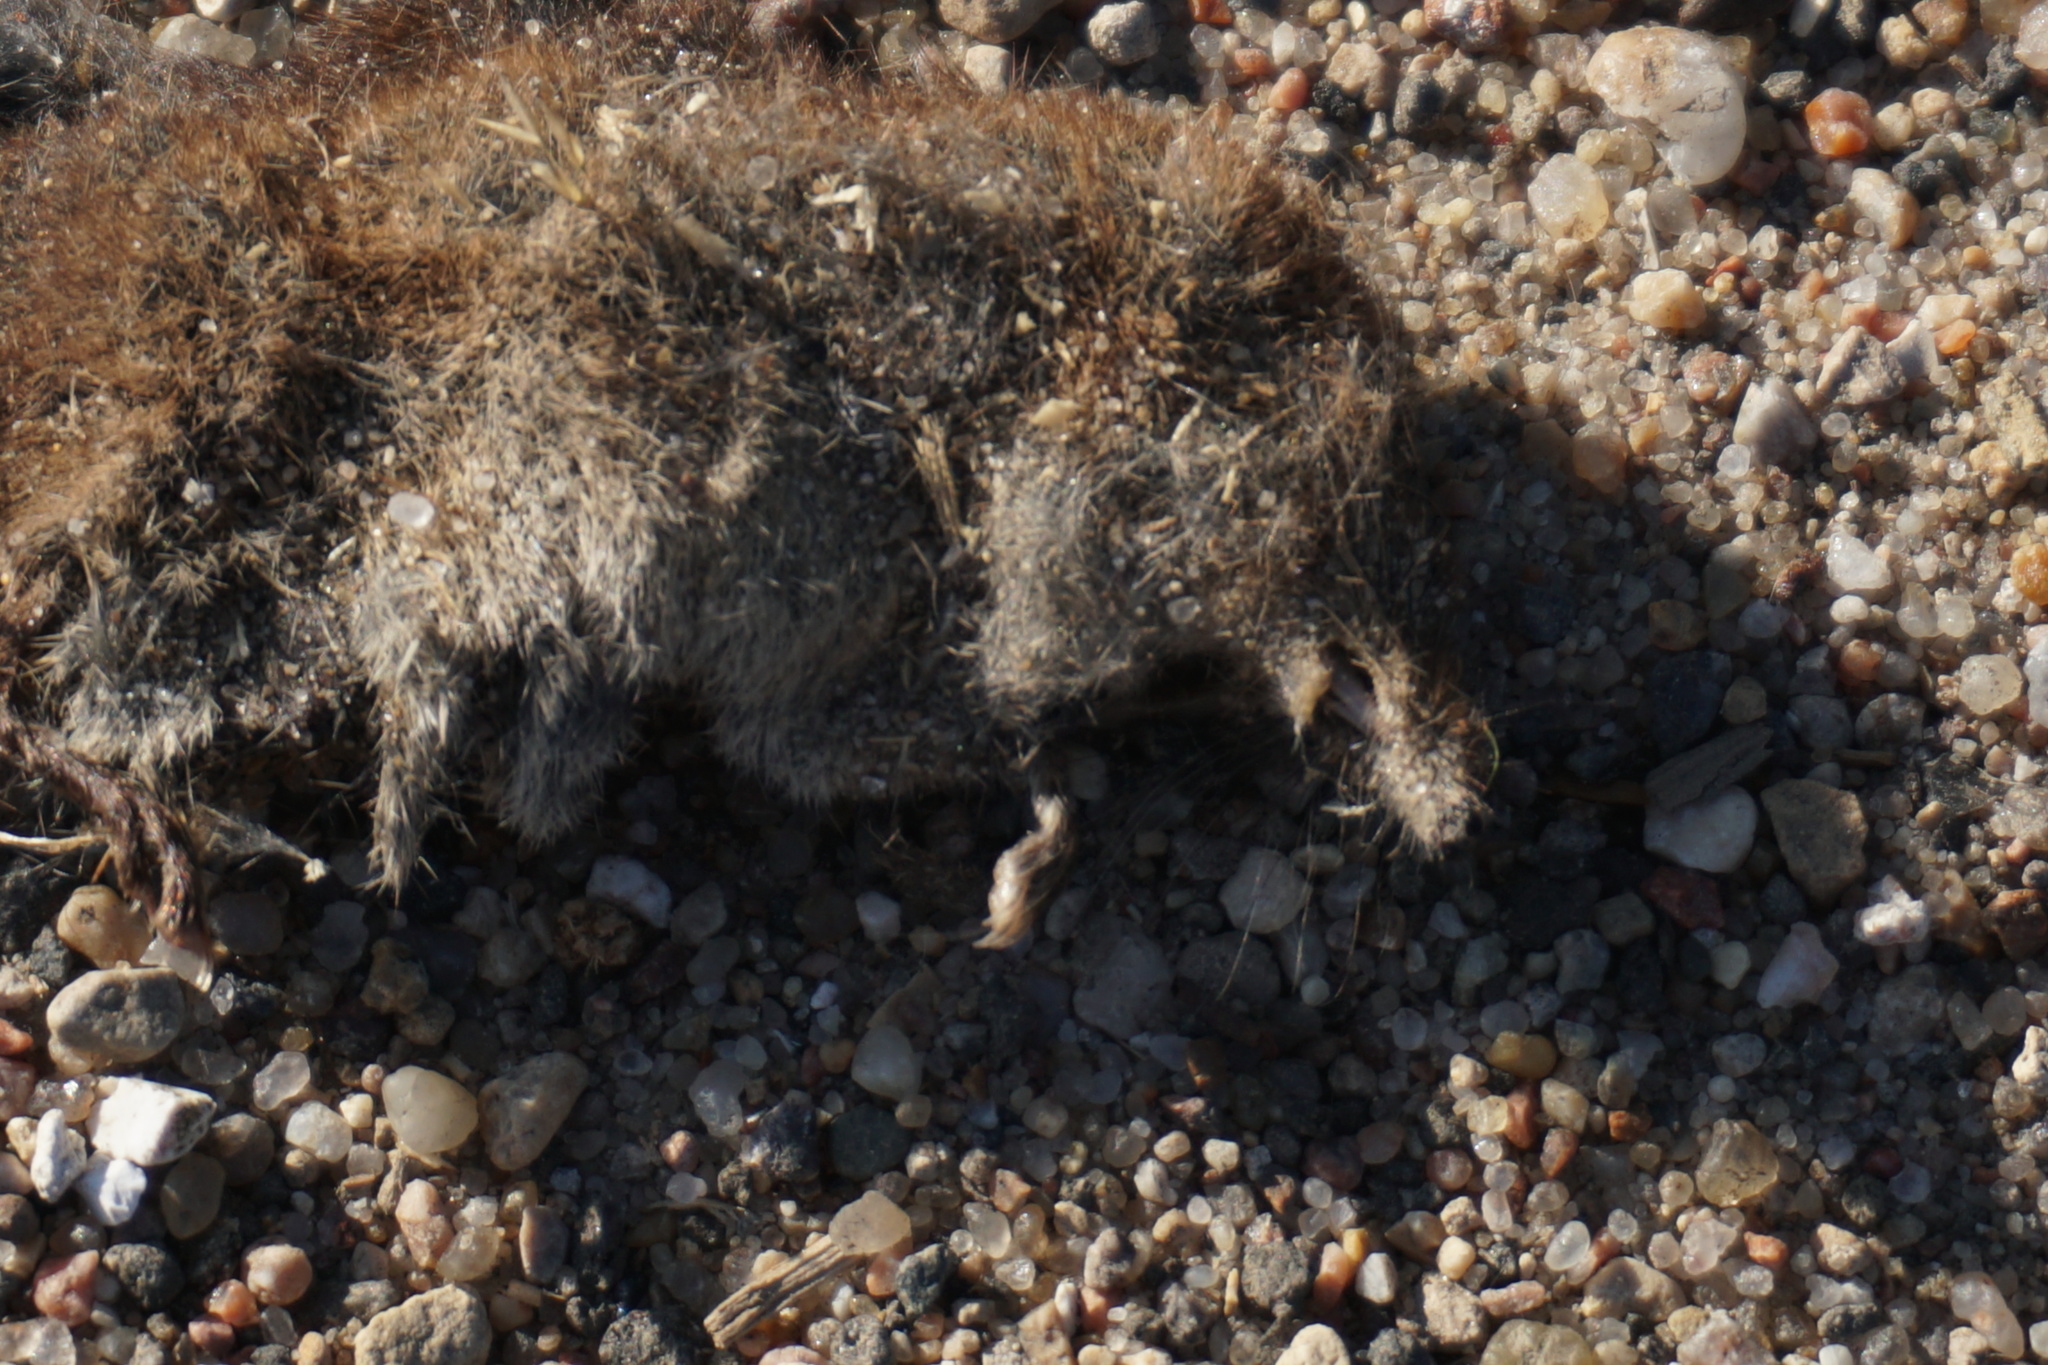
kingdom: Animalia
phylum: Chordata
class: Mammalia
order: Soricomorpha
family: Soricidae
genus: Sorex
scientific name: Sorex
